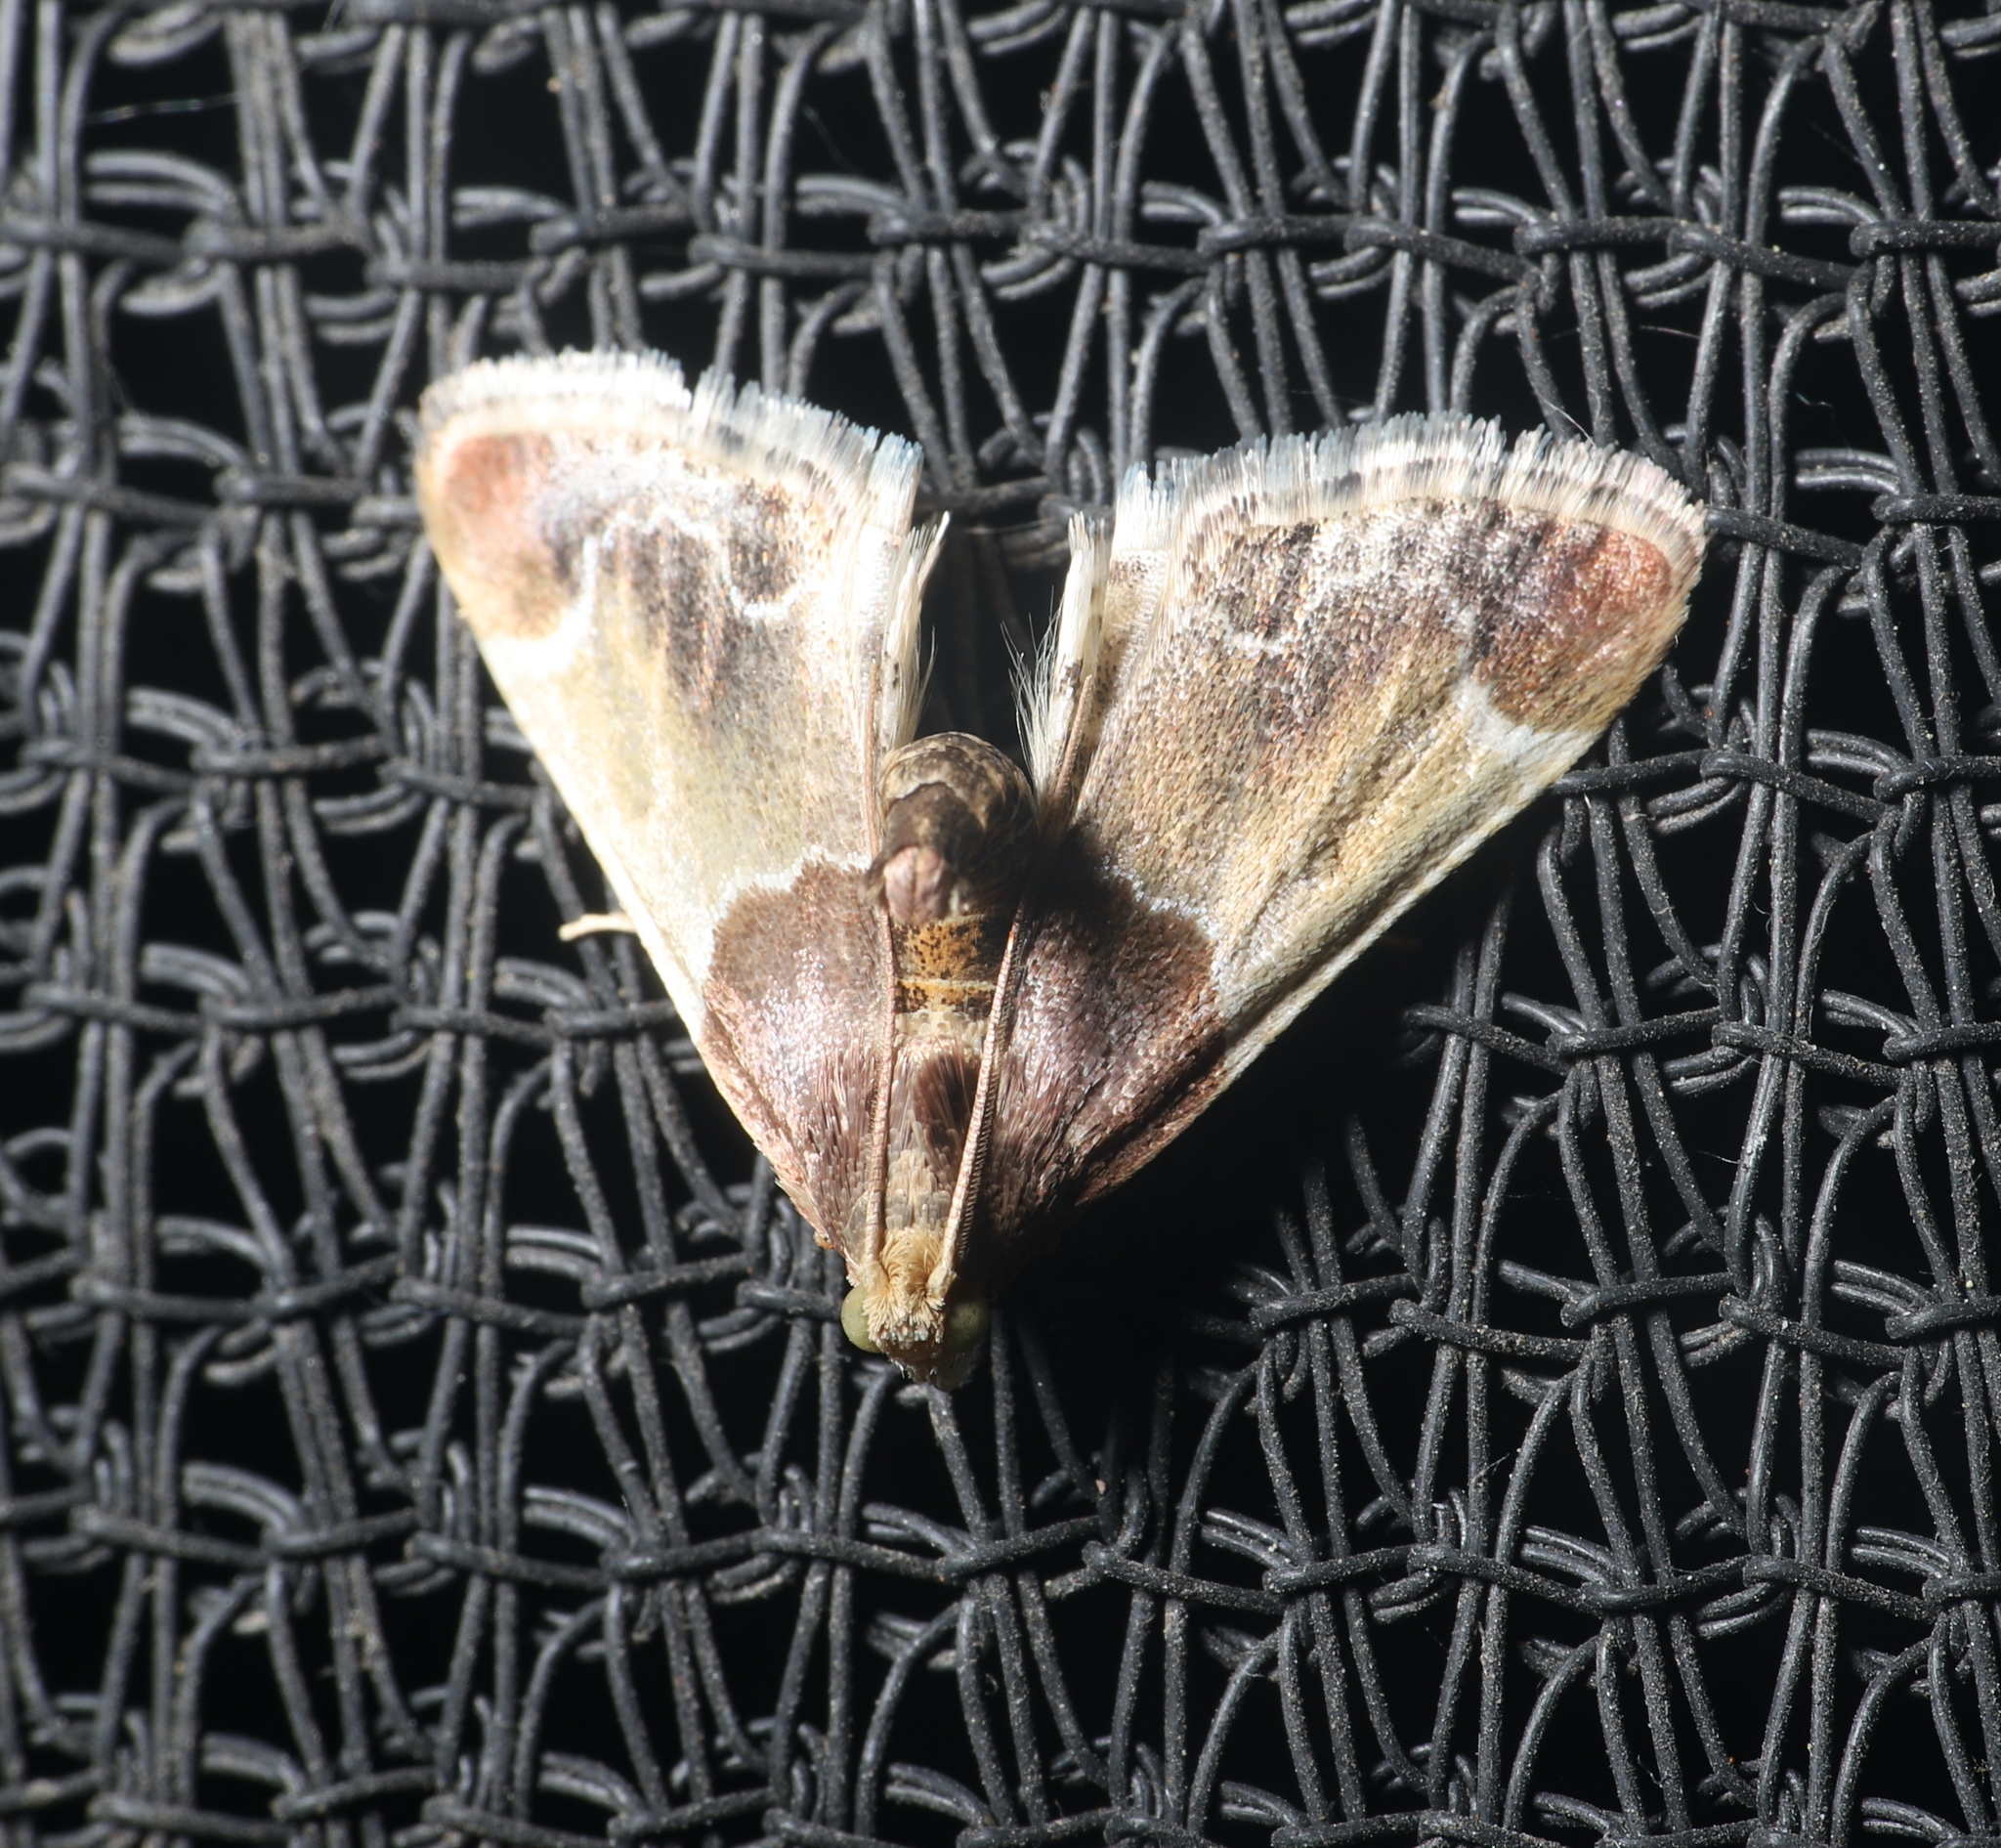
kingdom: Animalia
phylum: Arthropoda
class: Insecta
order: Lepidoptera
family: Pyralidae
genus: Pyralis
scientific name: Pyralis farinalis
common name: Meal moth
